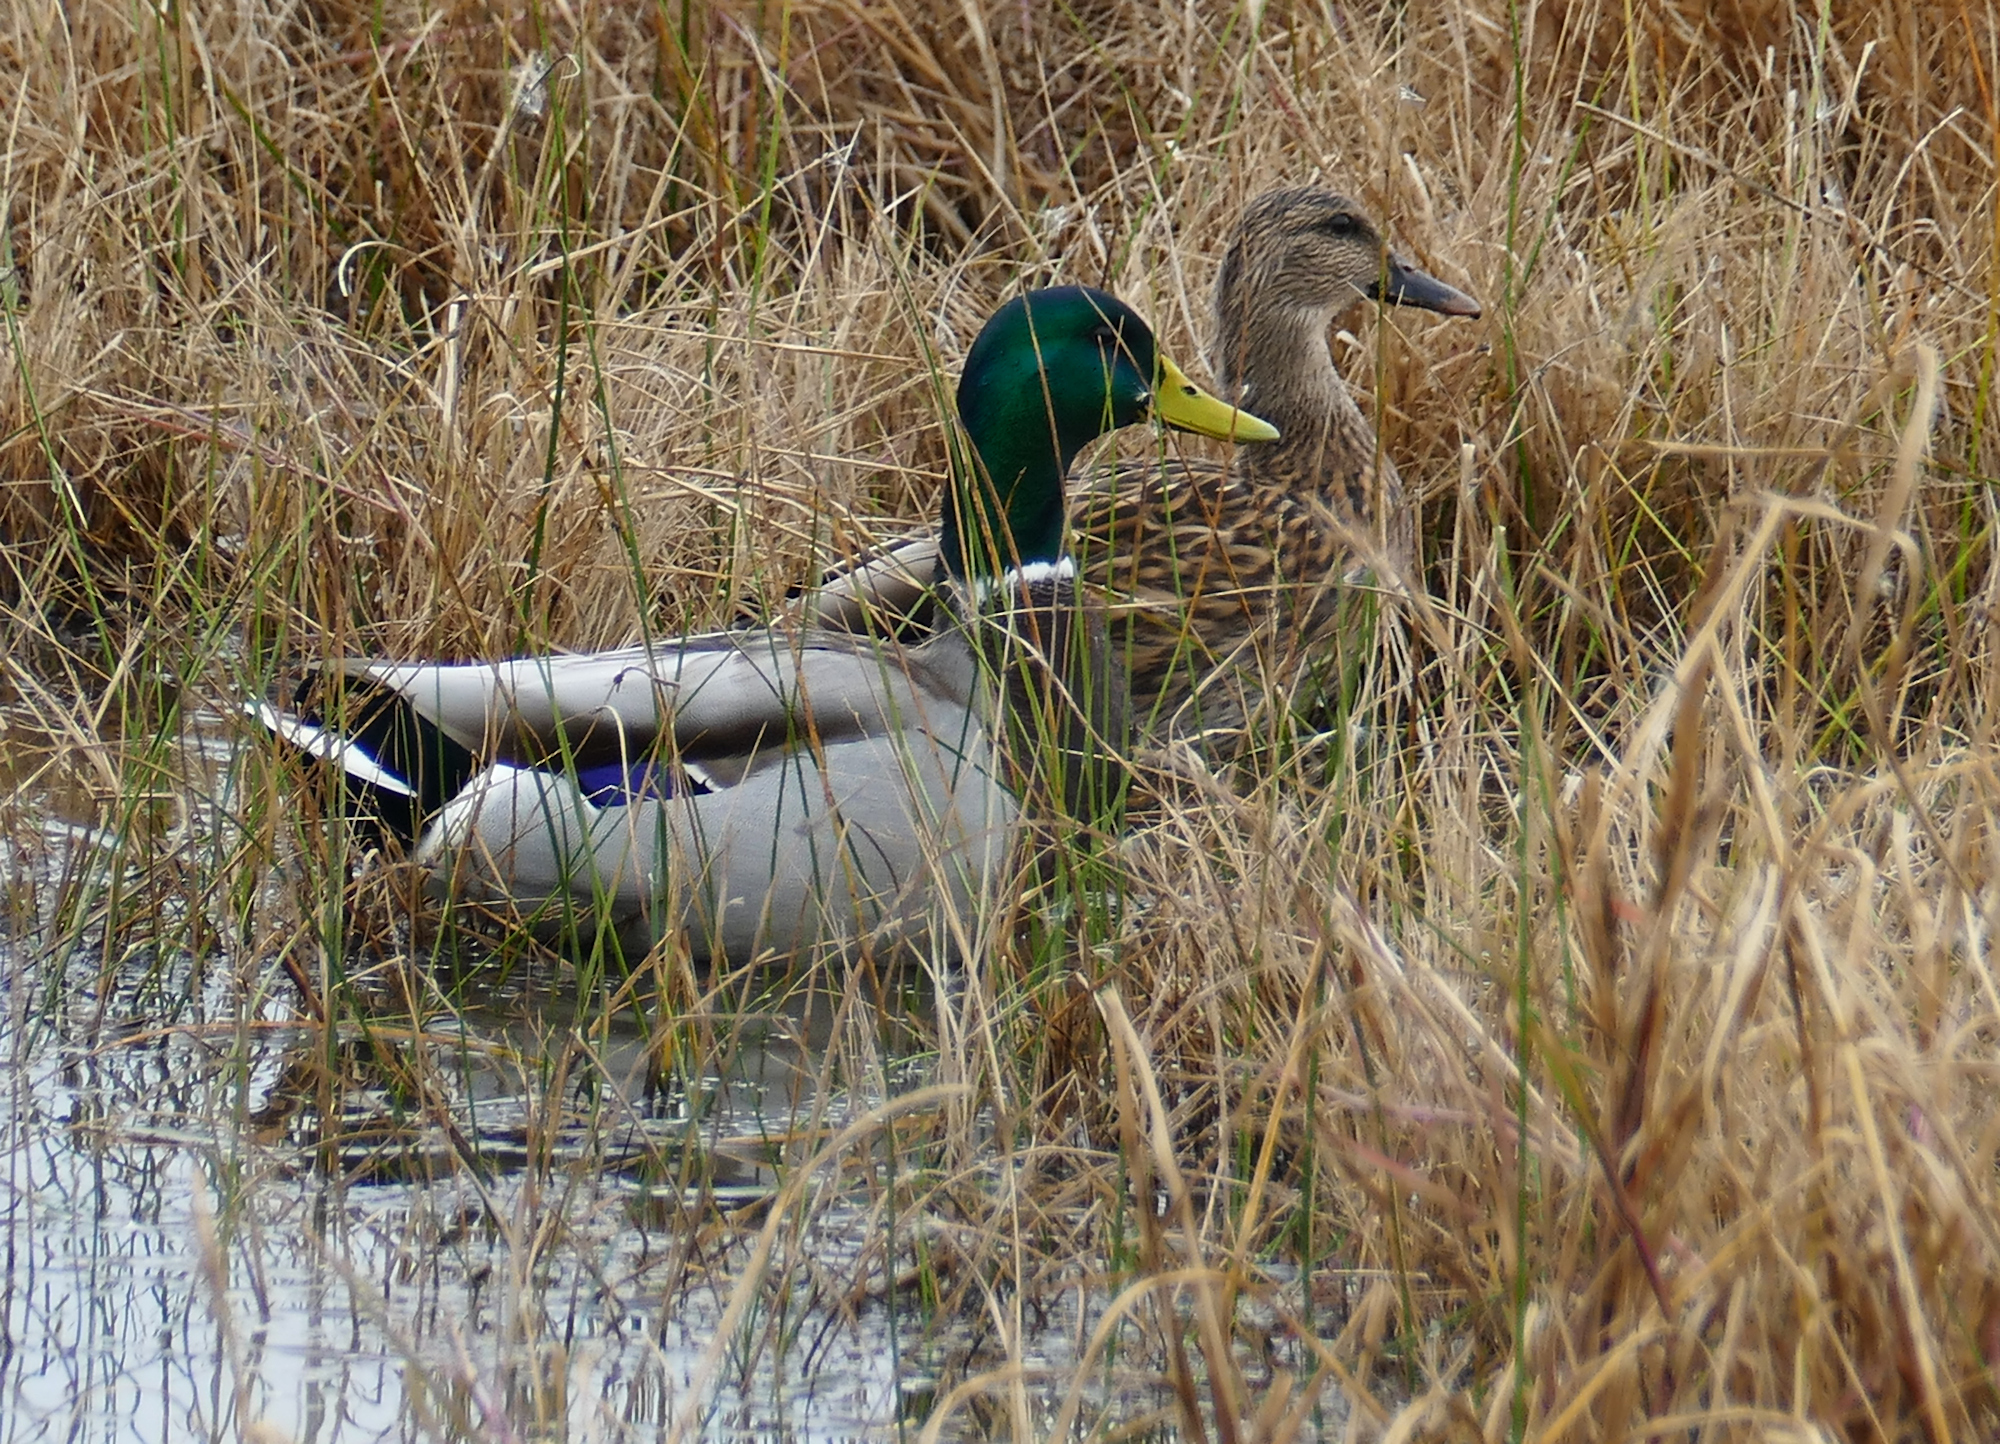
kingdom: Animalia
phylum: Chordata
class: Aves
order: Anseriformes
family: Anatidae
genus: Anas
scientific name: Anas platyrhynchos
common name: Mallard
